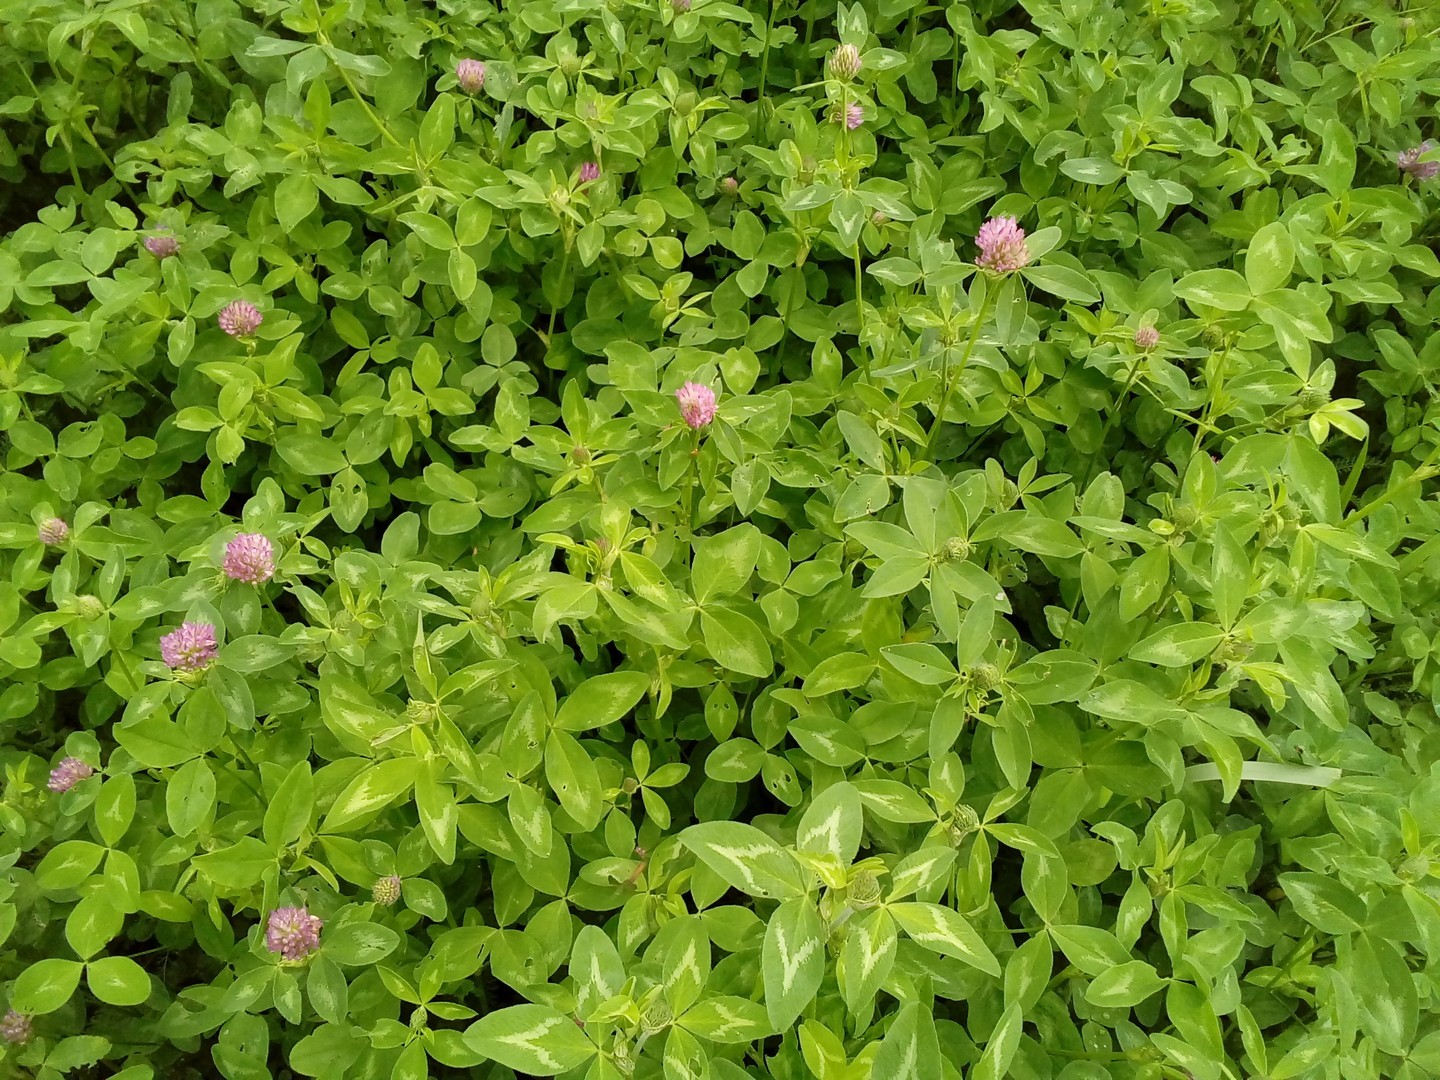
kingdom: Plantae
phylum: Tracheophyta
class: Magnoliopsida
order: Fabales
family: Fabaceae
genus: Trifolium
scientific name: Trifolium pratense
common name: Red clover
